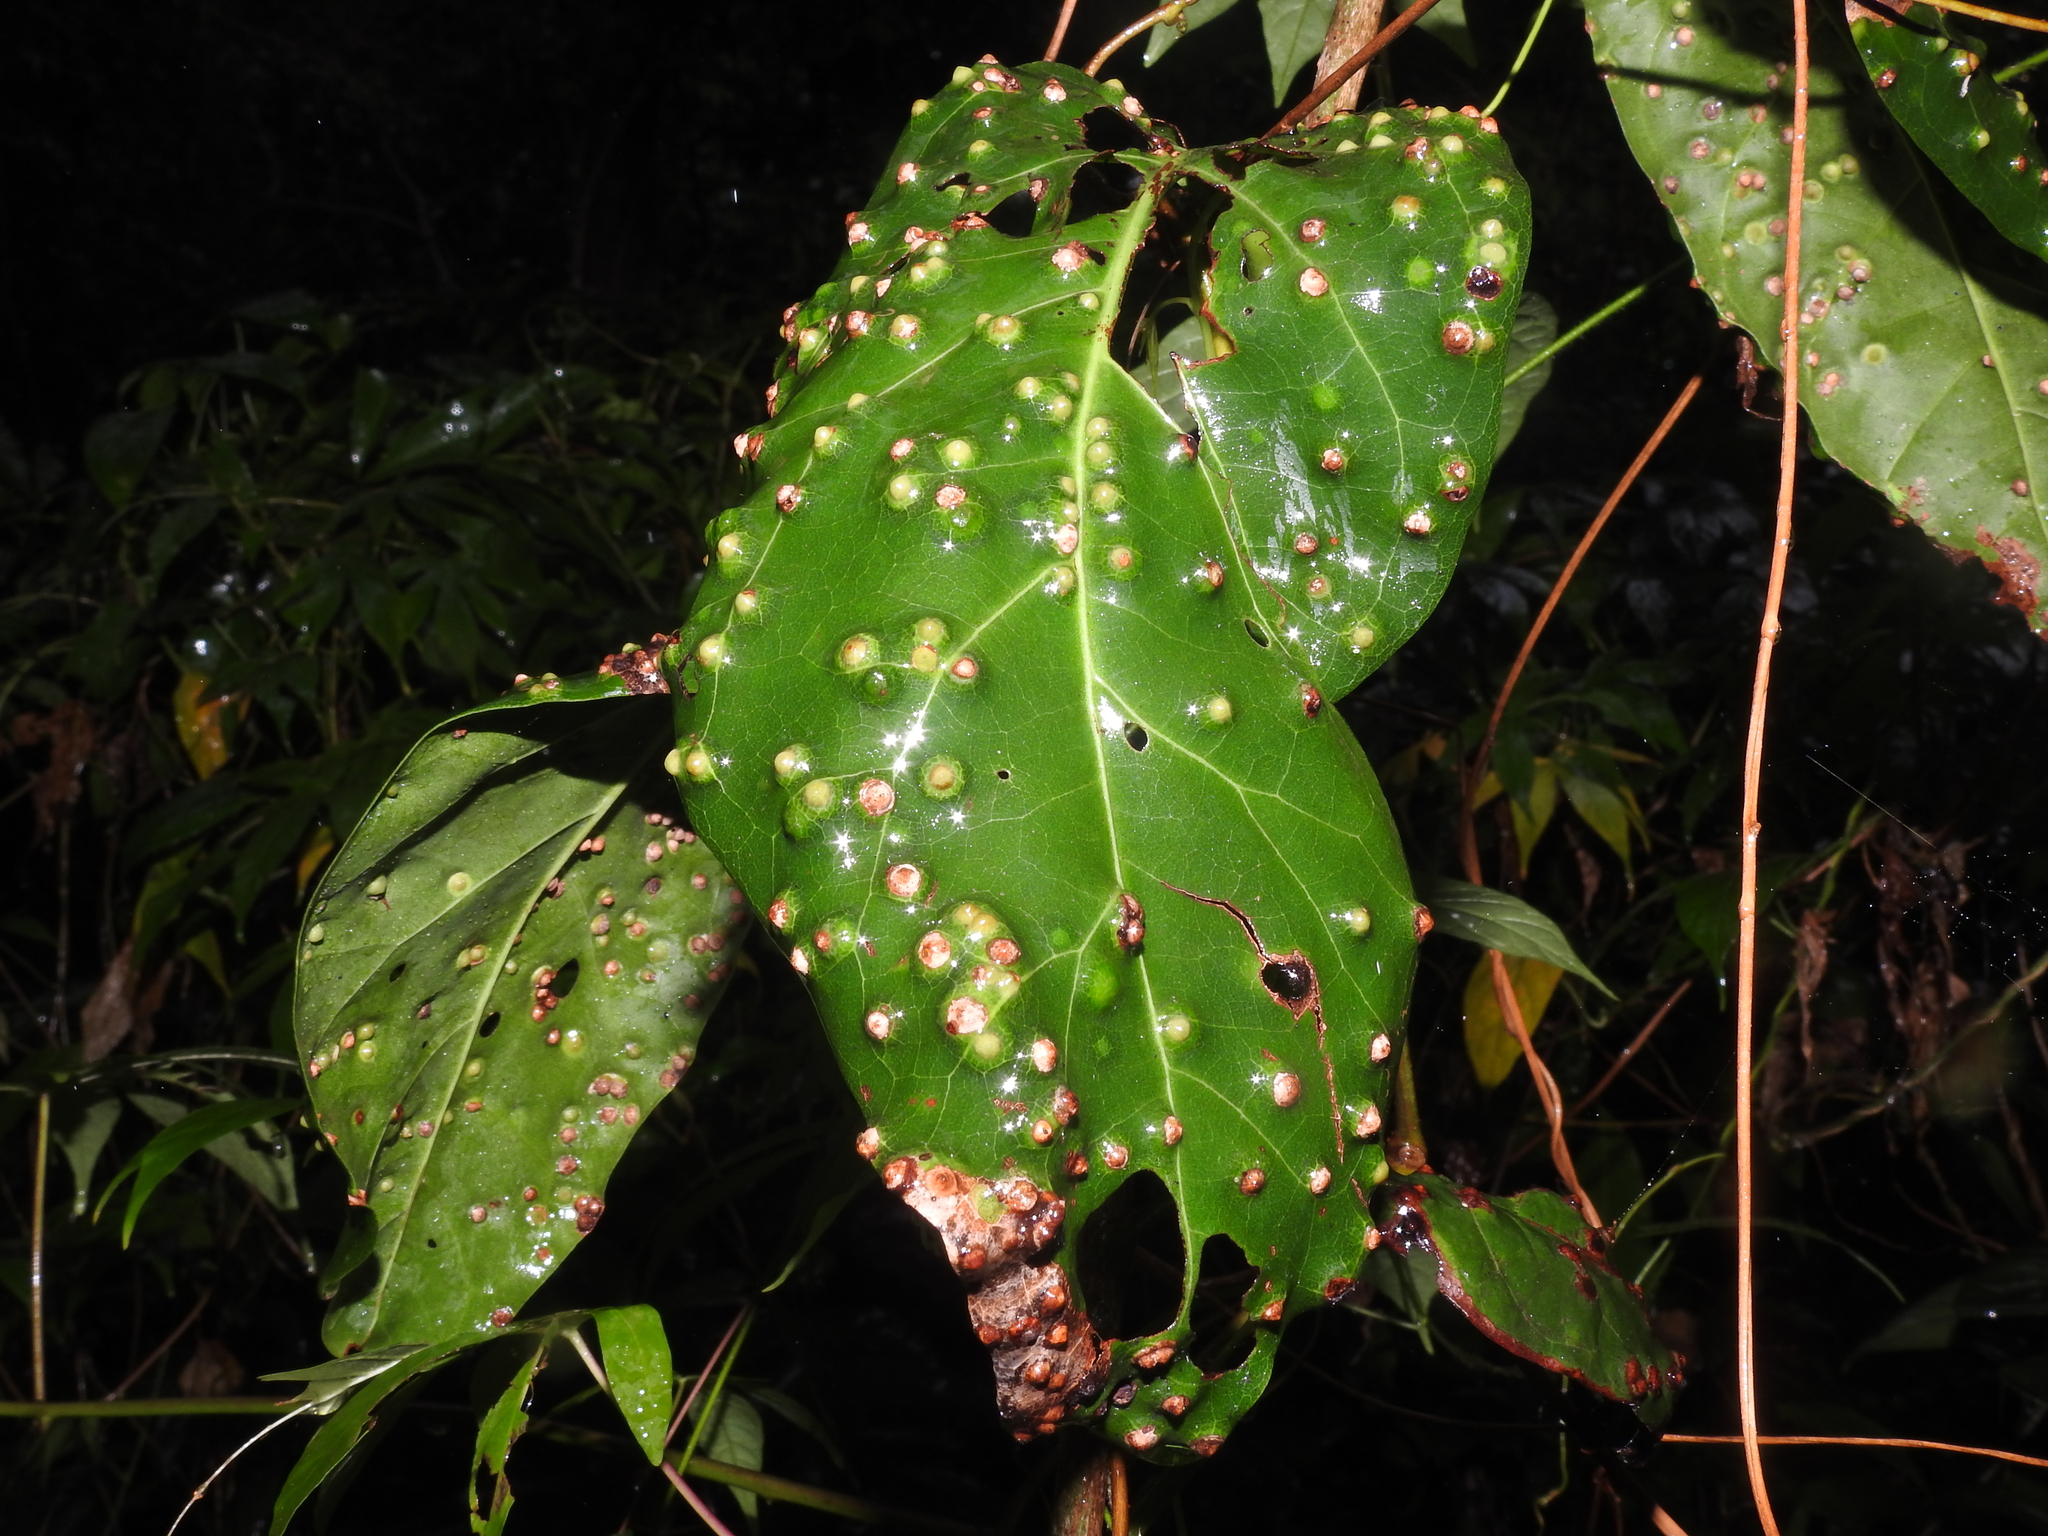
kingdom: Animalia
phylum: Arthropoda
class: Insecta
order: Diptera
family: Cecidomyiidae
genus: Ctenodactylomyia
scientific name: Ctenodactylomyia watsoni
